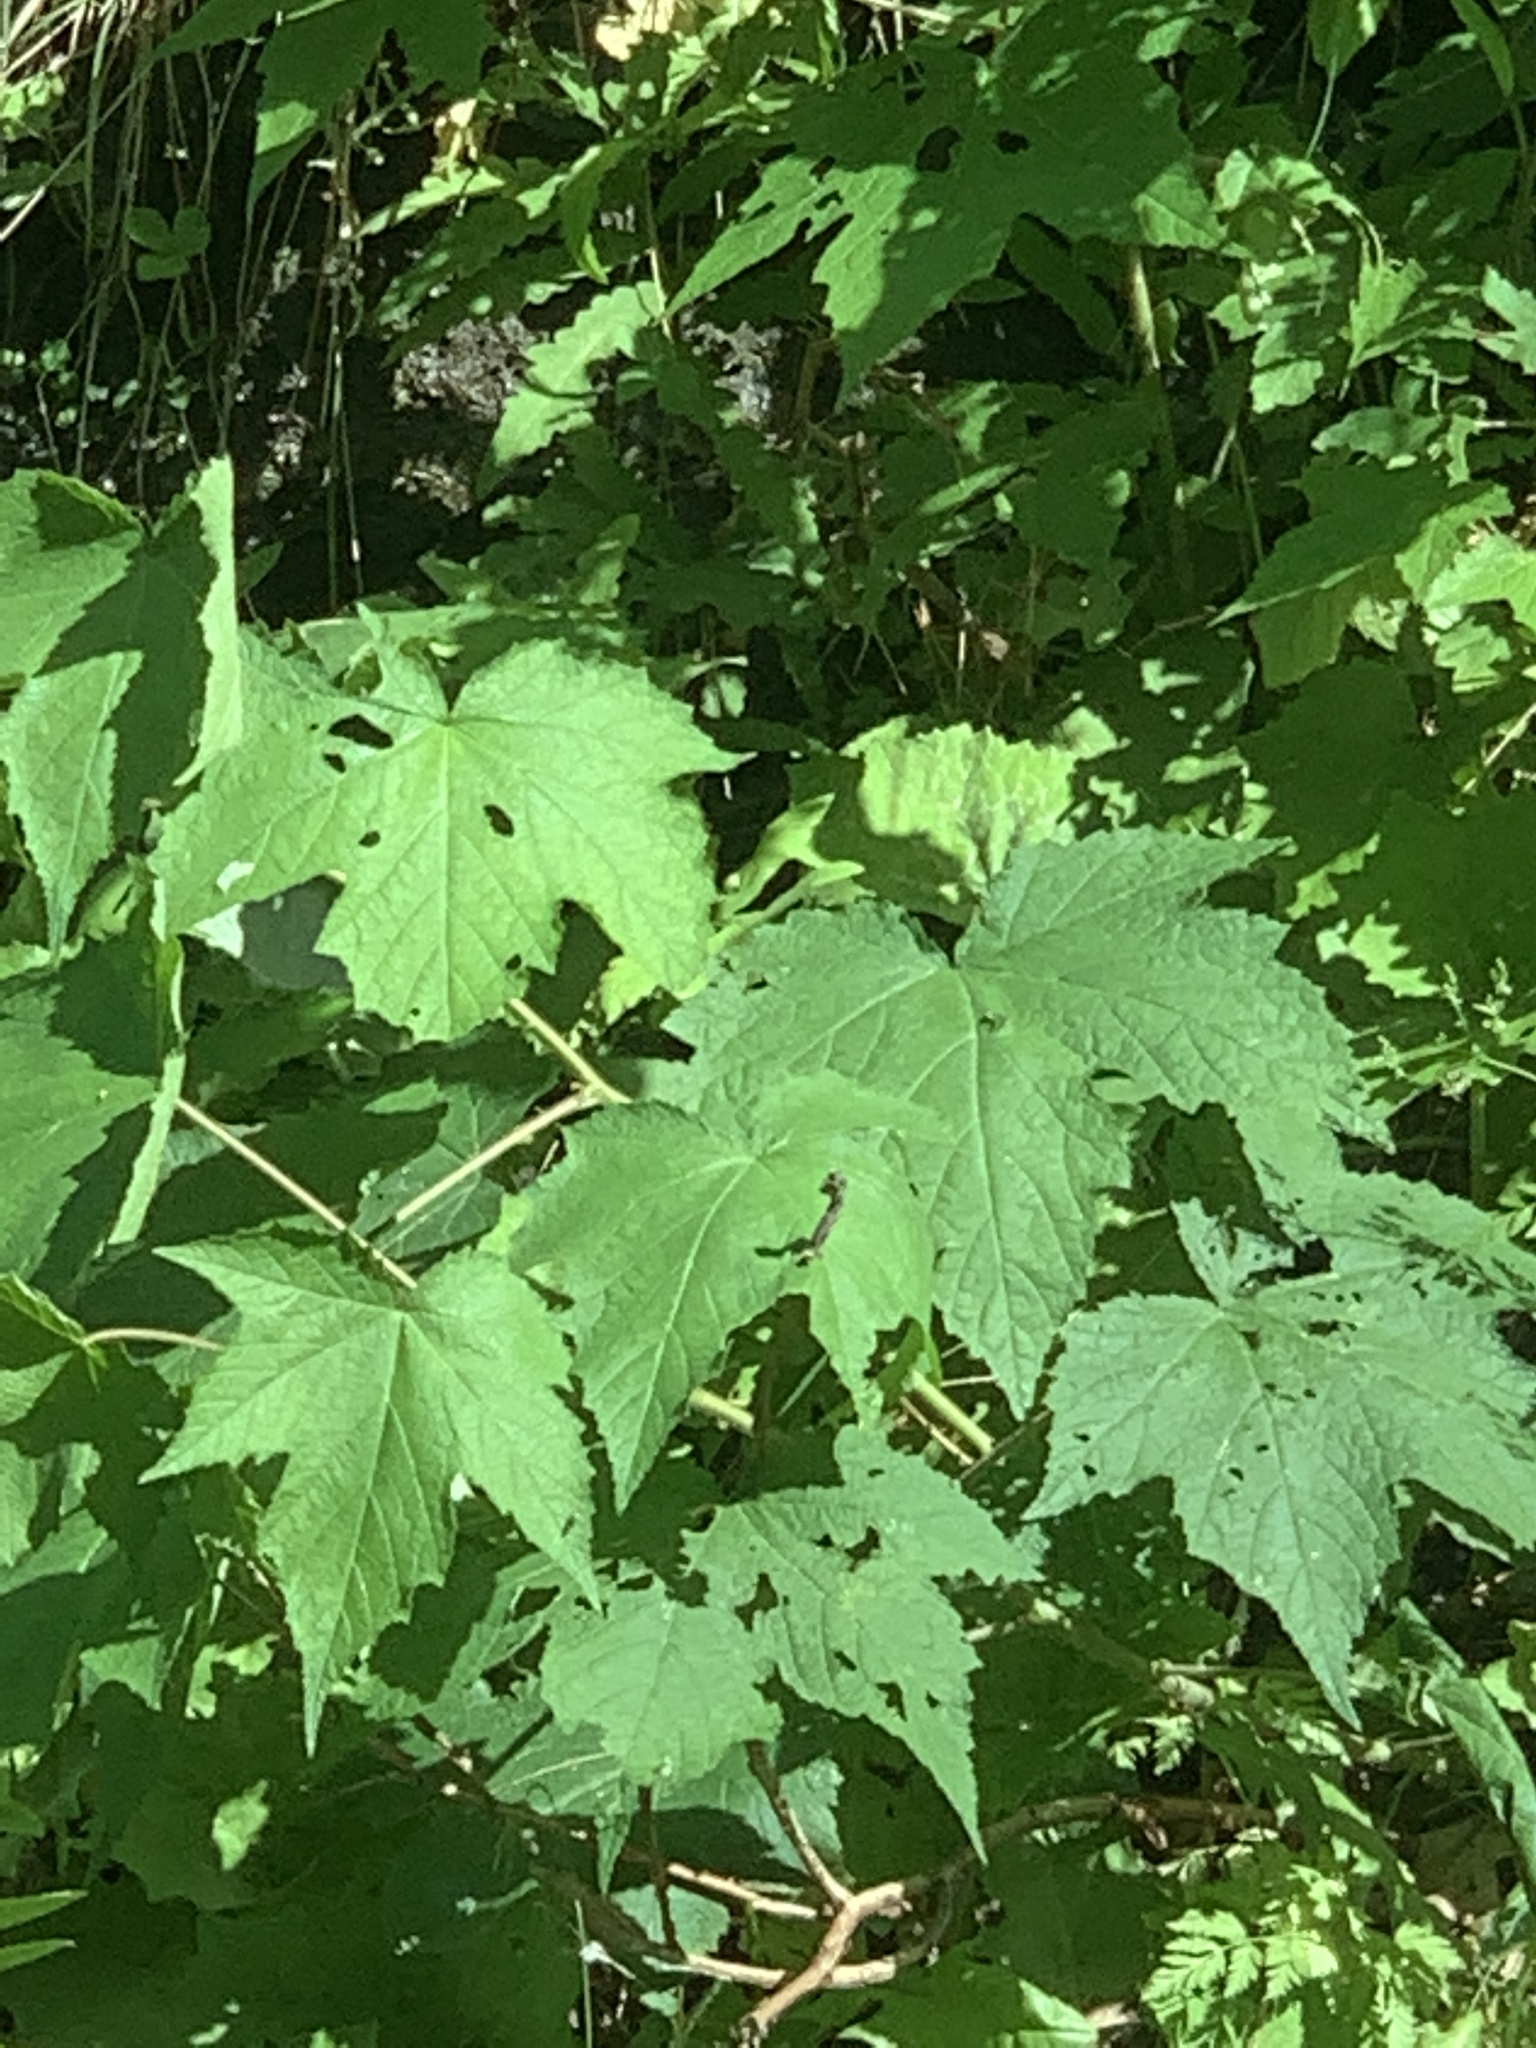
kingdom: Plantae
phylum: Tracheophyta
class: Magnoliopsida
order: Rosales
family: Rosaceae
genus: Rubus
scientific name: Rubus odoratus
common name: Purple-flowered raspberry
